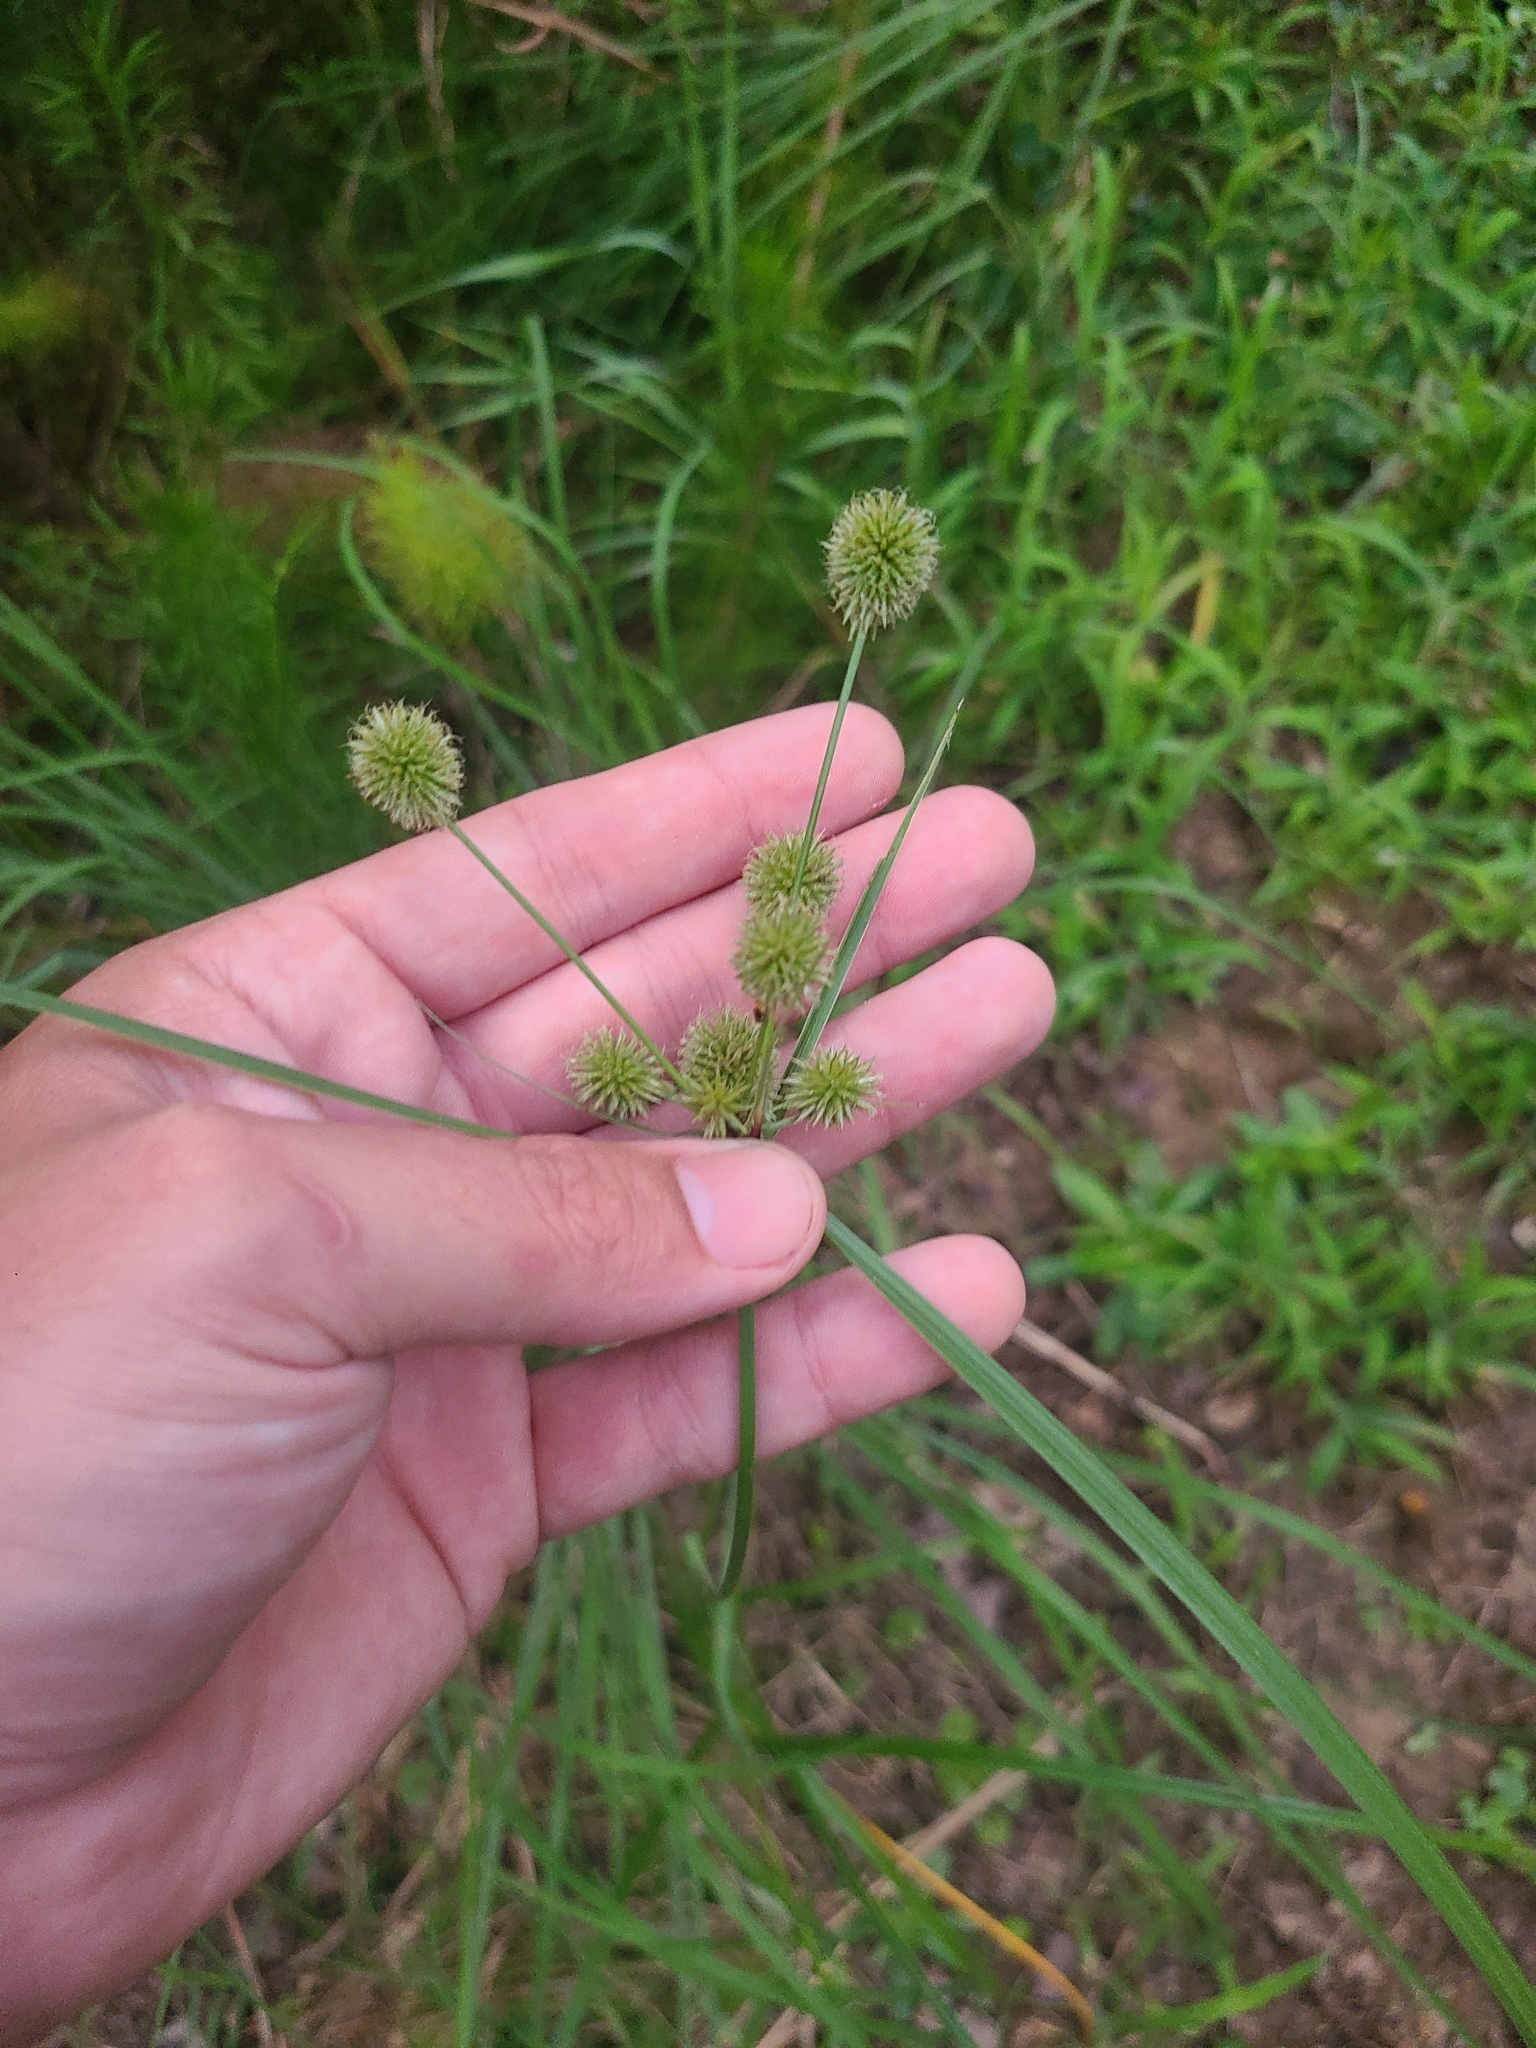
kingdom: Plantae
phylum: Tracheophyta
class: Liliopsida
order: Poales
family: Cyperaceae
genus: Cyperus
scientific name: Cyperus echinatus
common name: Teasel sedge
